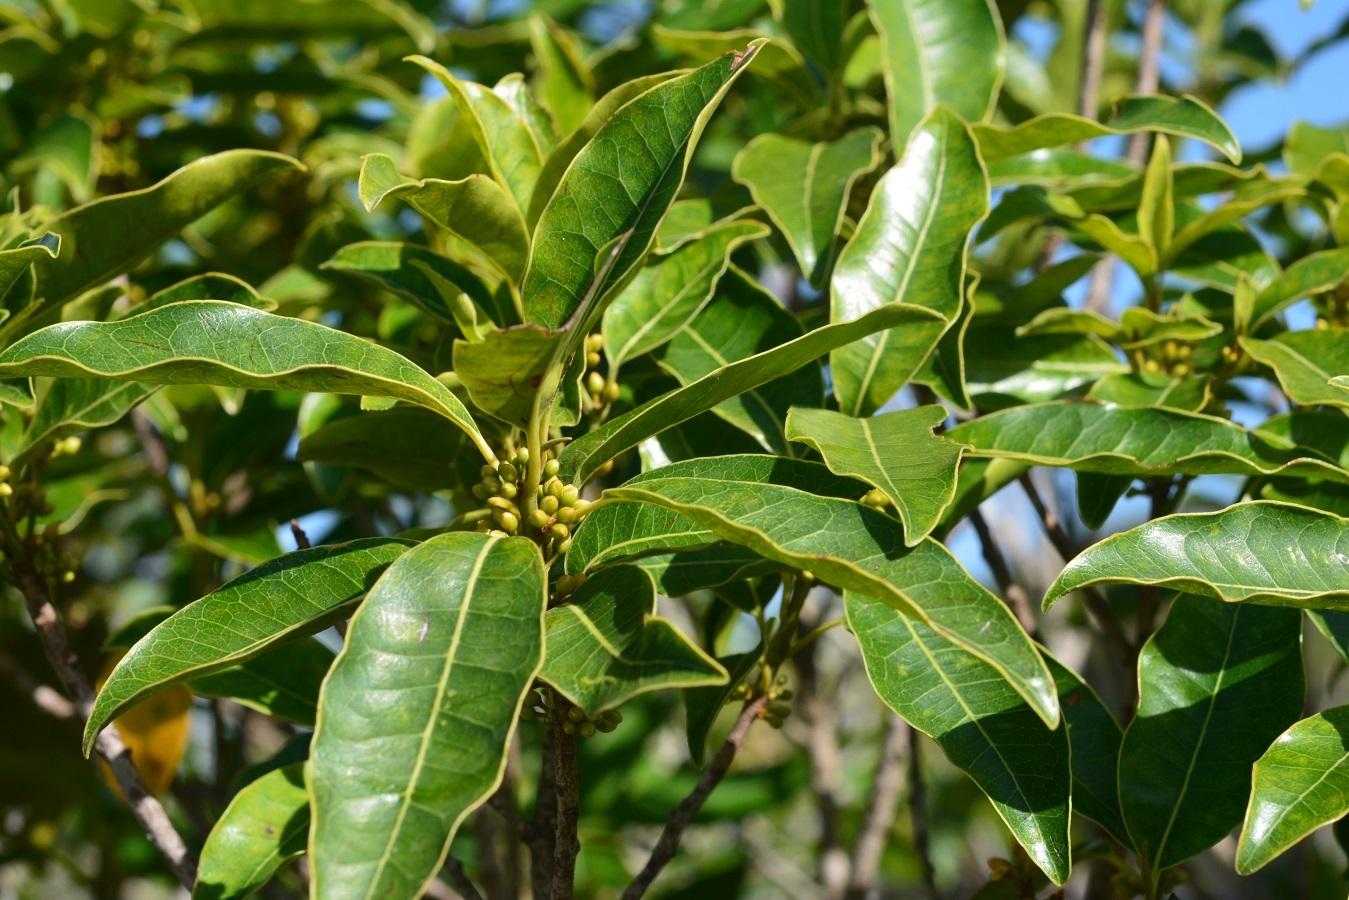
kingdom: Plantae
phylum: Tracheophyta
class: Magnoliopsida
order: Ericales
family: Sapotaceae
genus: Sideroxylon
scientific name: Sideroxylon salicifolium
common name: White bully
